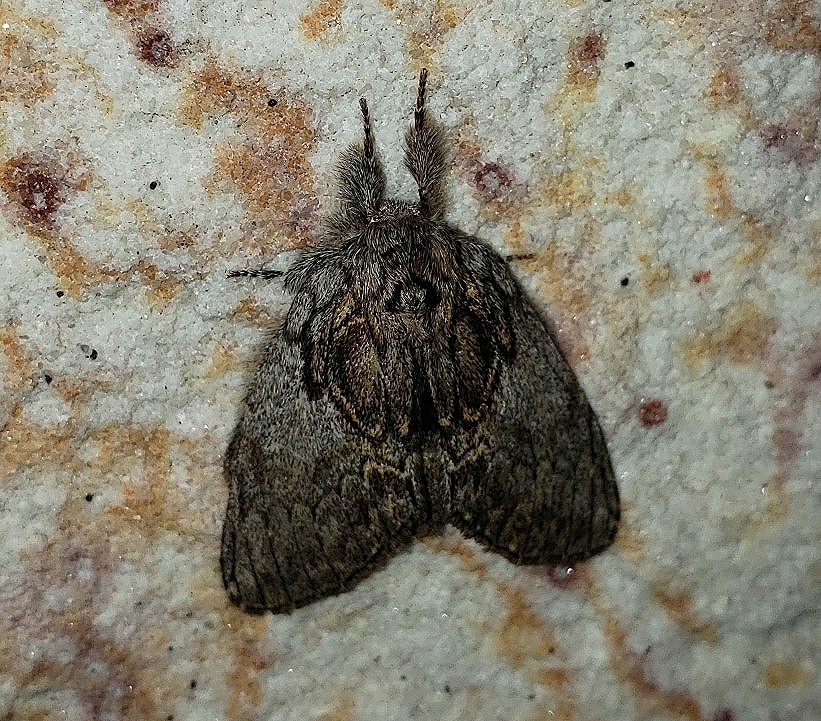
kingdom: Animalia
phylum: Arthropoda
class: Insecta
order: Lepidoptera
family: Notodontidae
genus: Peridea
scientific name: Peridea basitriens
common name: Oval-based prominent
